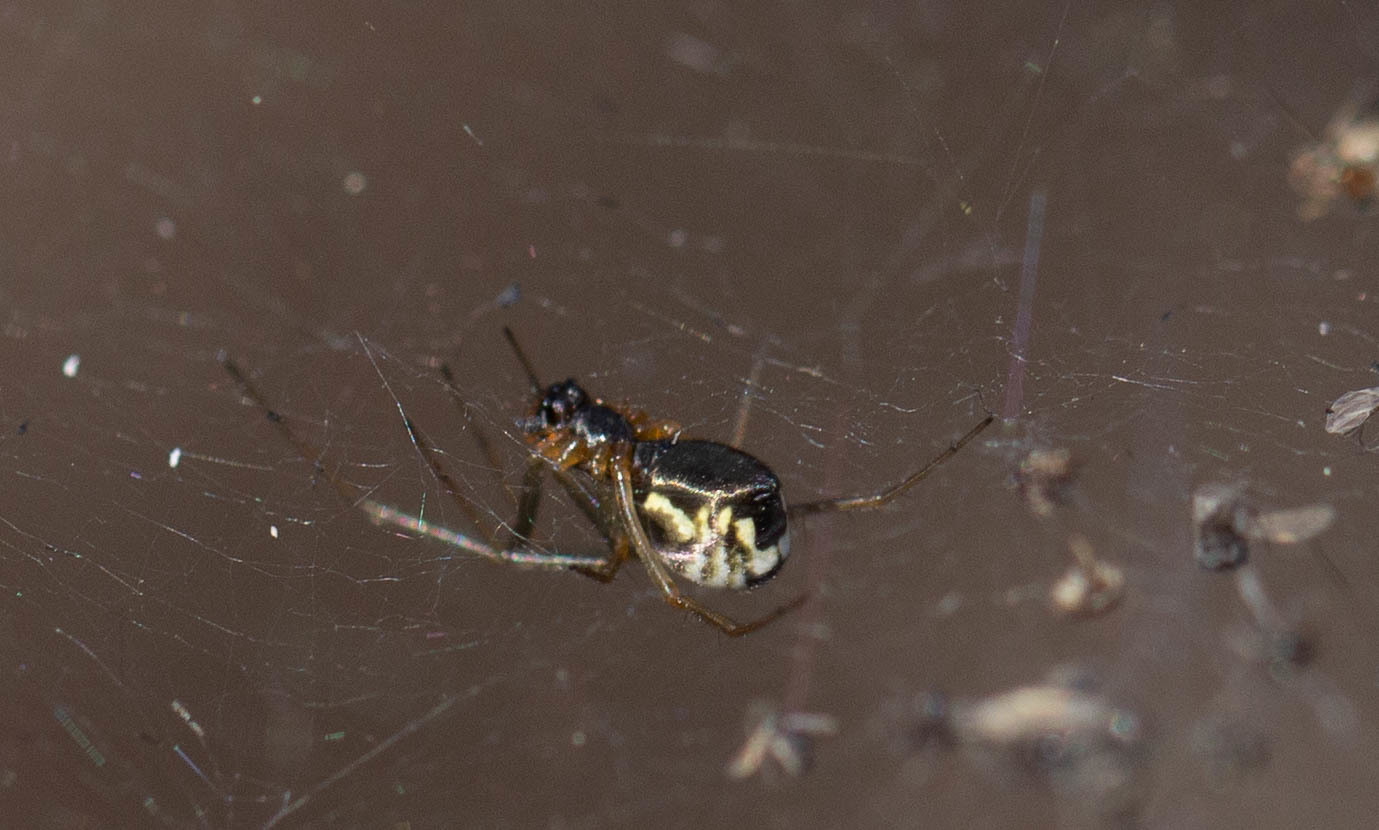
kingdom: Animalia
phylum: Arthropoda
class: Arachnida
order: Araneae
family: Linyphiidae
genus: Frontinella
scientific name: Frontinella pyramitela
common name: Bowl-and-doily spider
